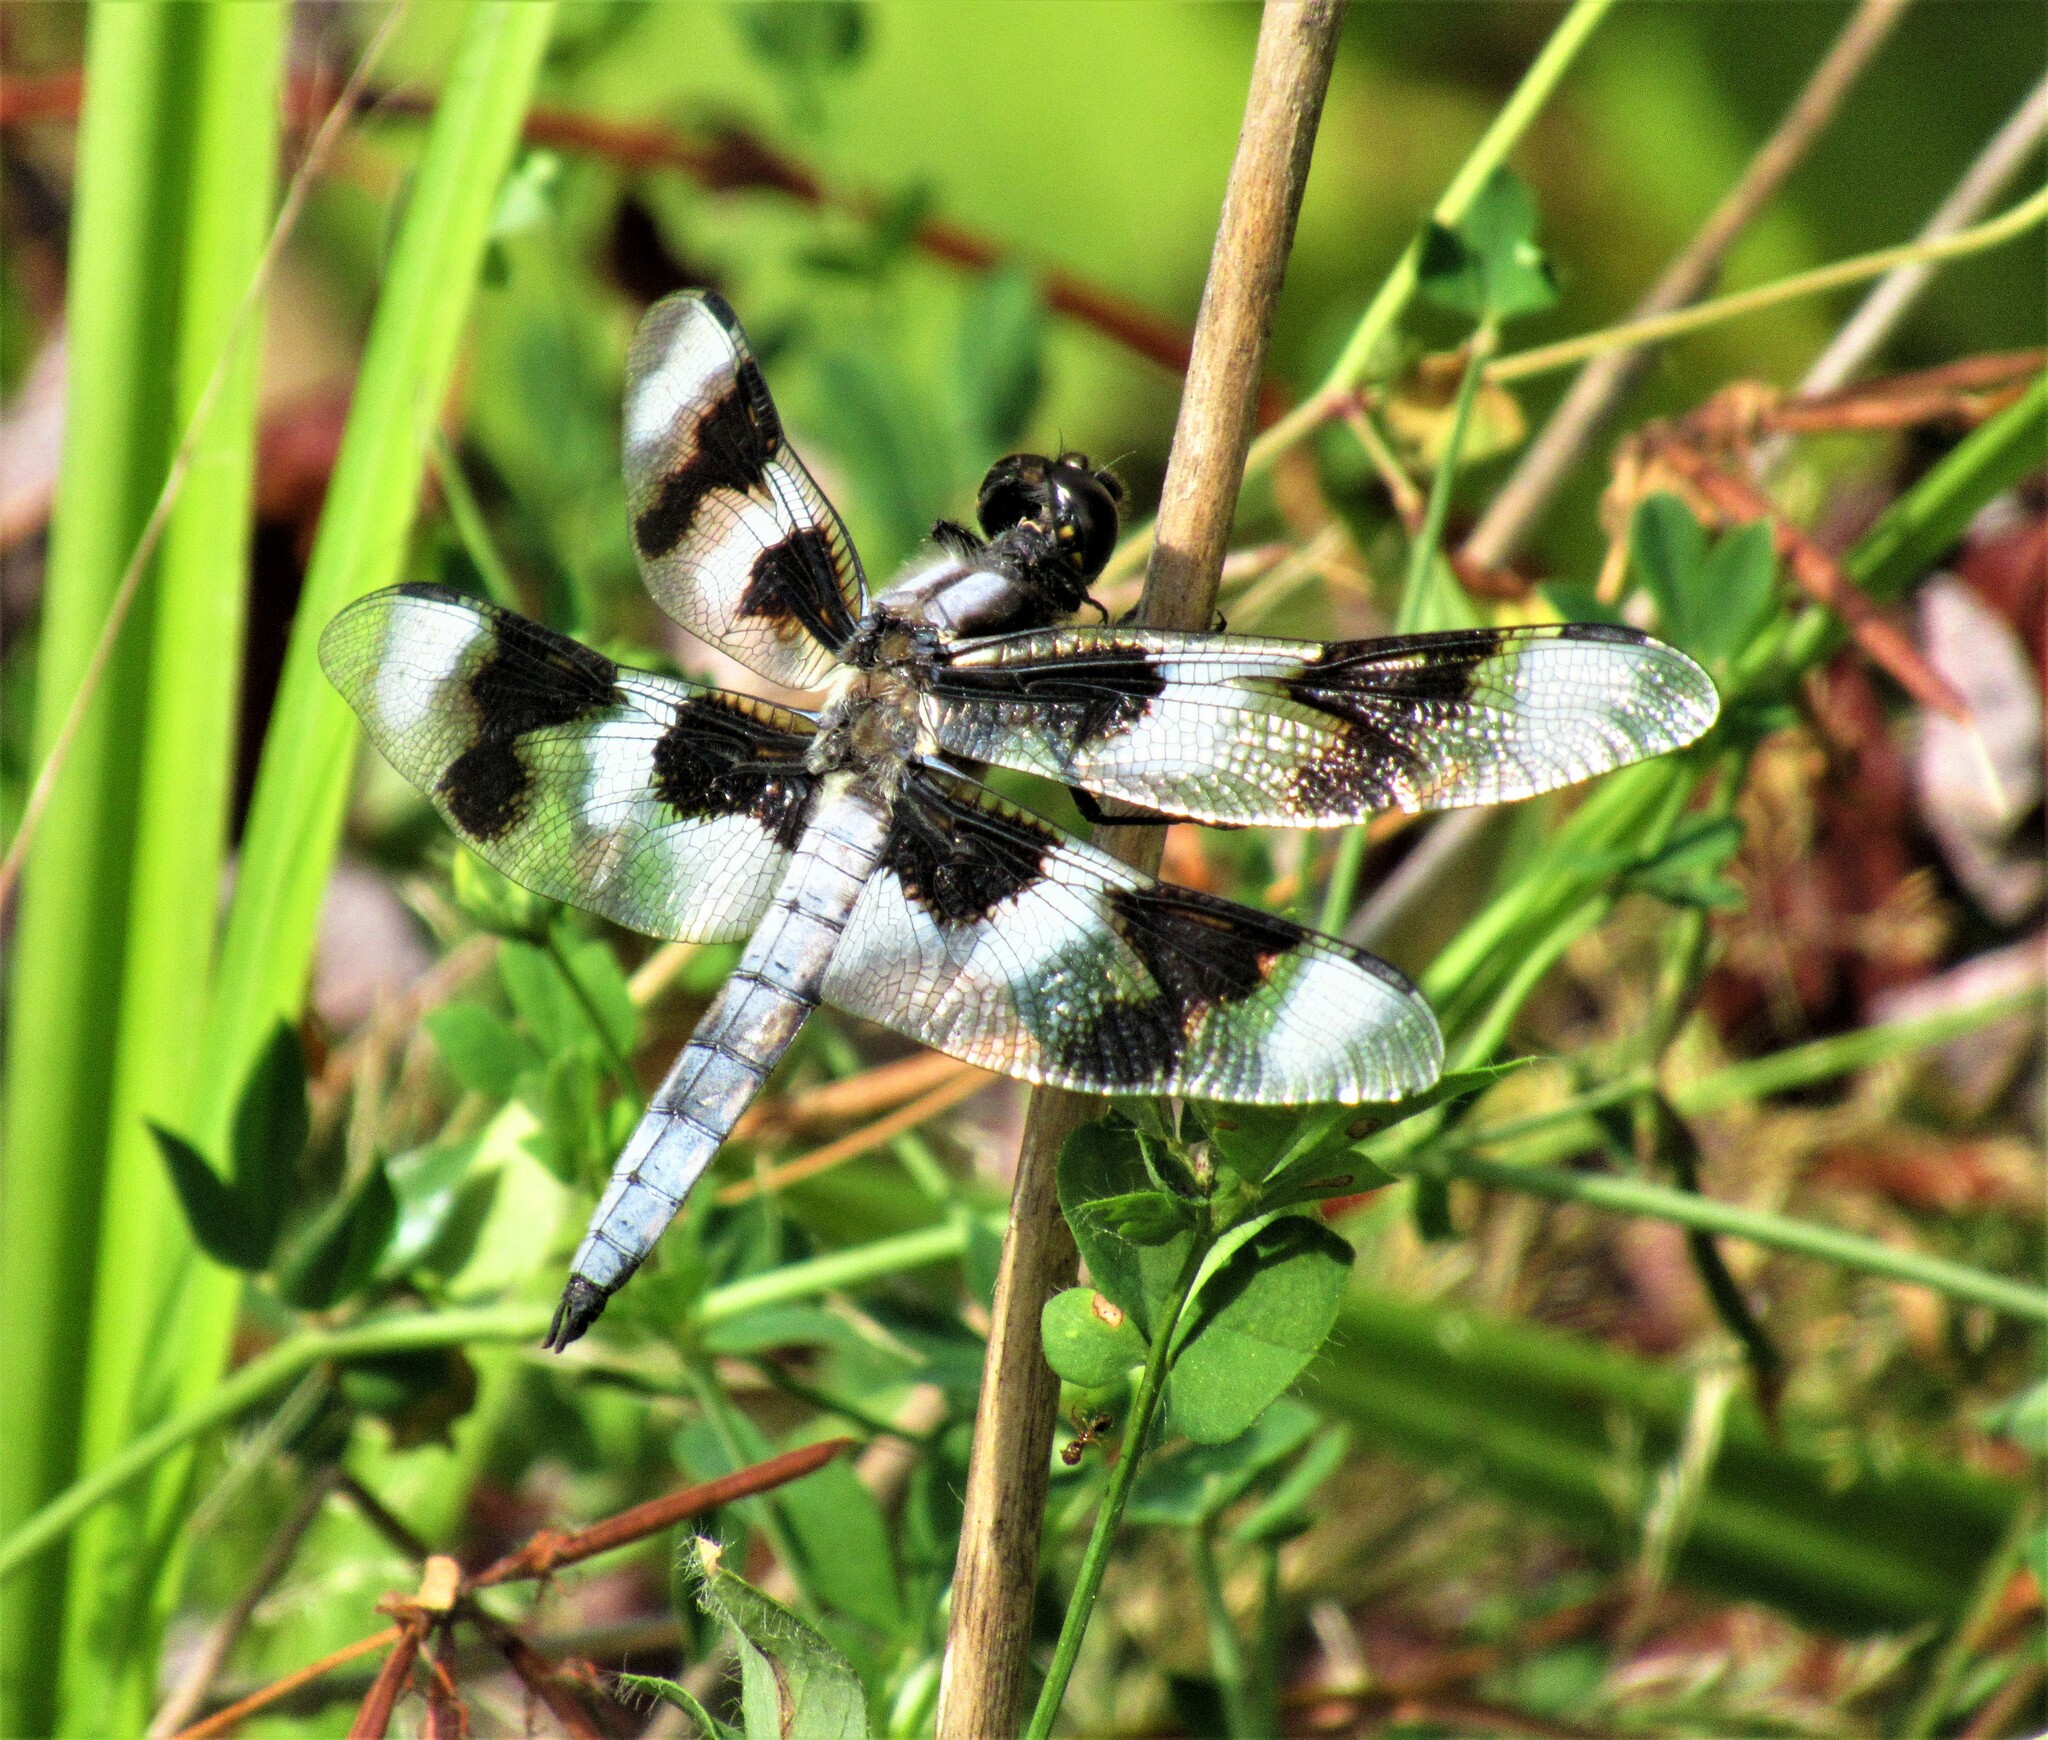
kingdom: Animalia
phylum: Arthropoda
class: Insecta
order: Odonata
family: Libellulidae
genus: Libellula
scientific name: Libellula forensis
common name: Eight-spotted skimmer
